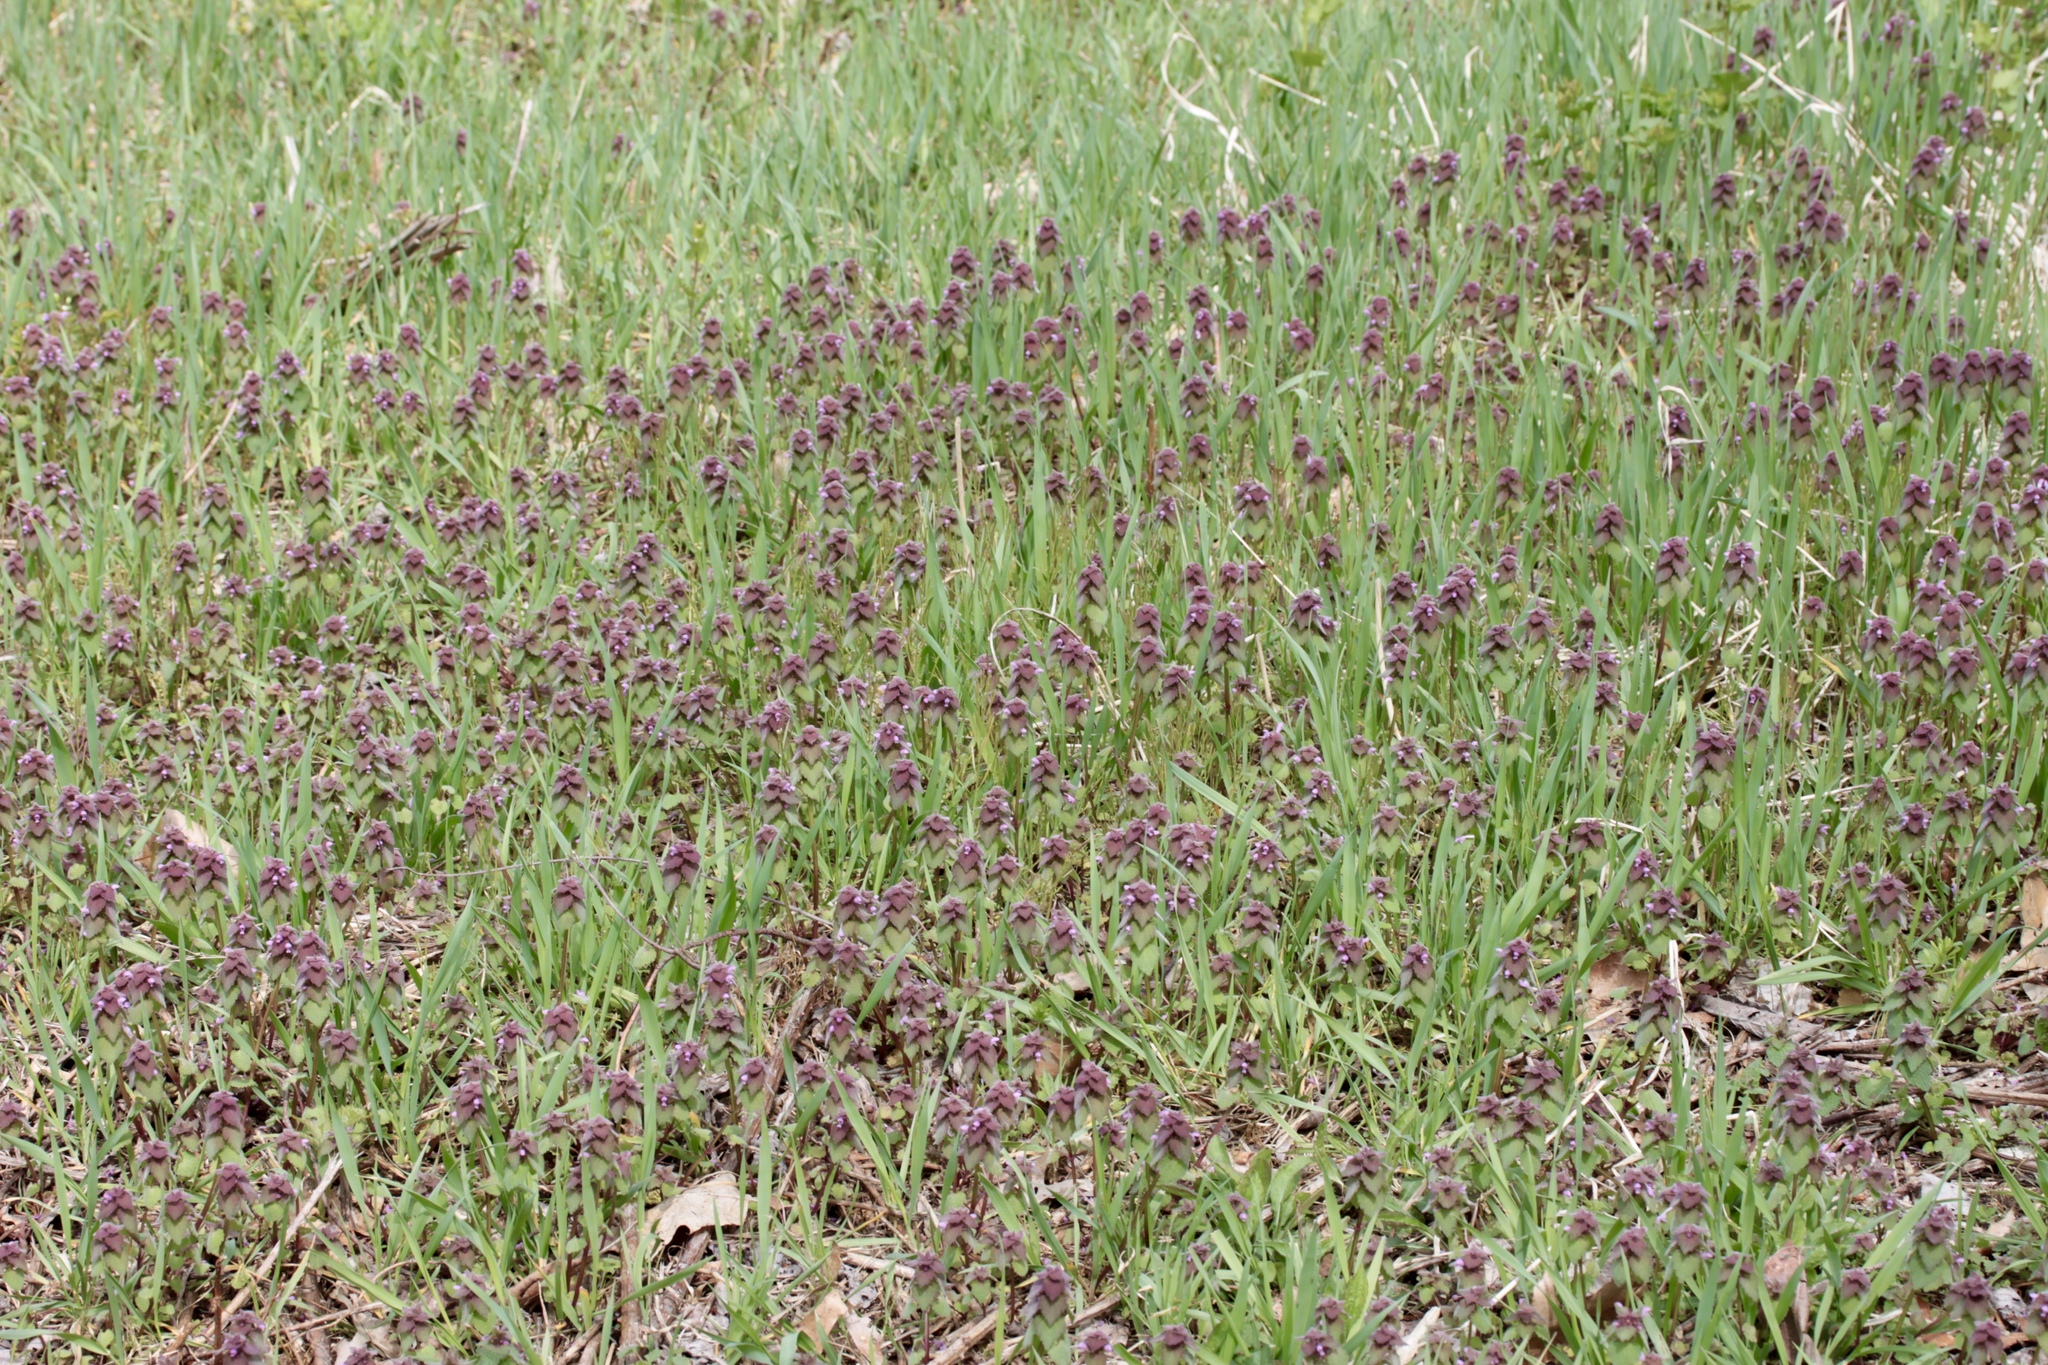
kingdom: Plantae
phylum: Tracheophyta
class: Magnoliopsida
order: Lamiales
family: Lamiaceae
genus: Lamium
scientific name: Lamium purpureum
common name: Red dead-nettle
